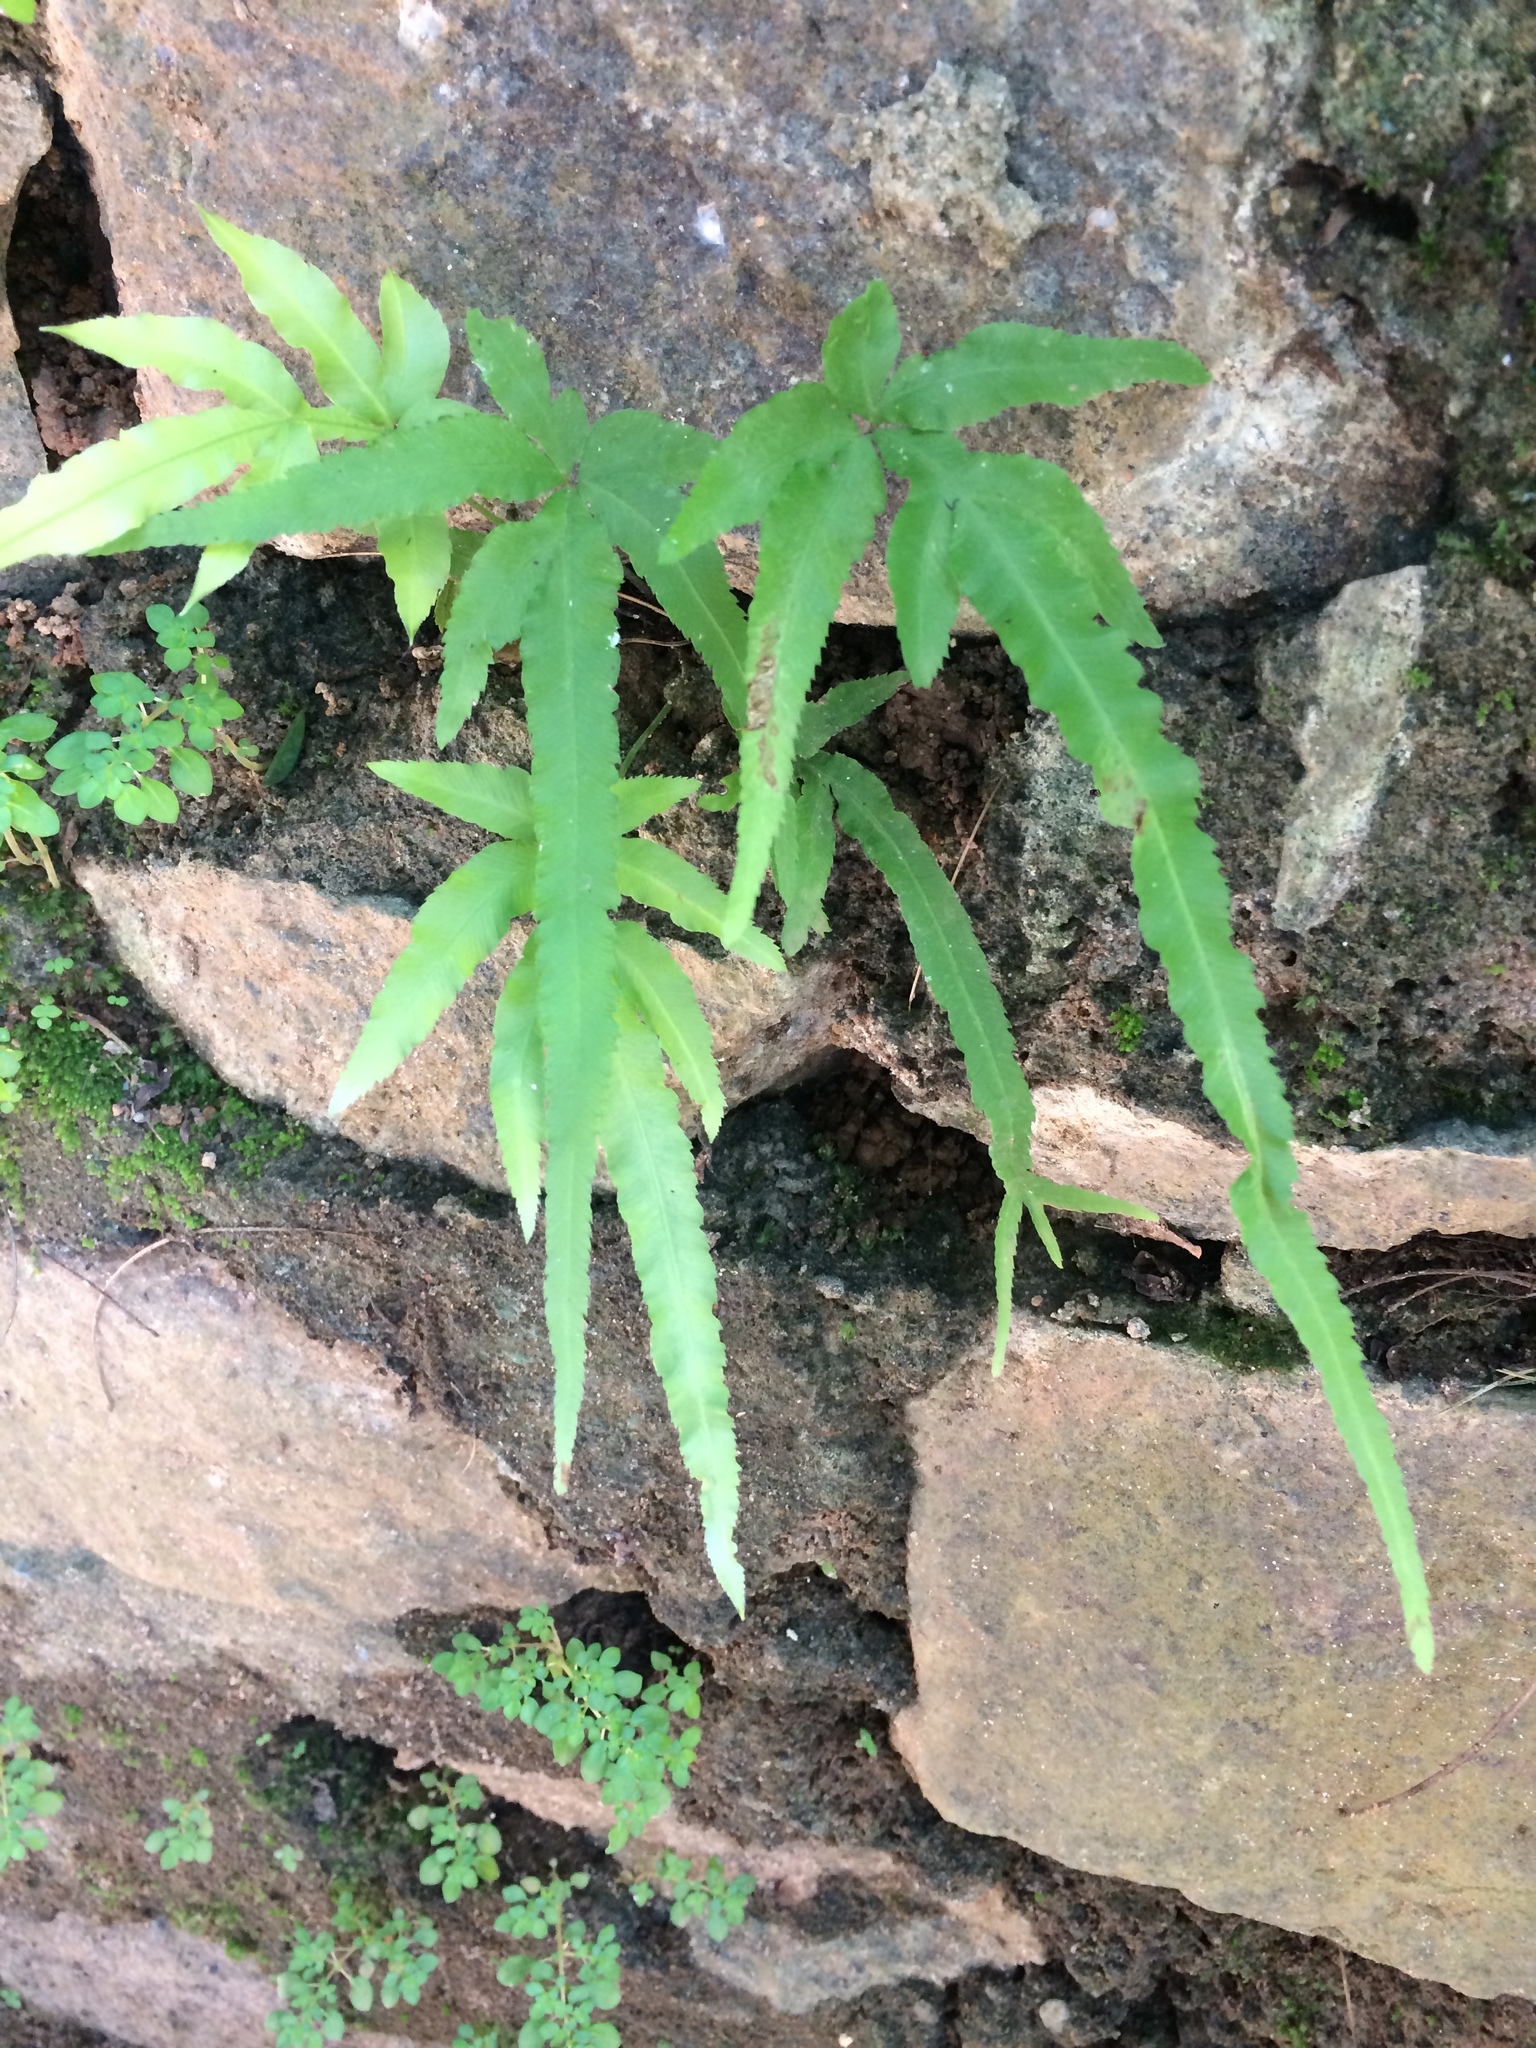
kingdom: Plantae
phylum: Tracheophyta
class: Polypodiopsida
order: Polypodiales
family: Pteridaceae
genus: Pteris
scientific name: Pteris multifida
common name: Spider brake
